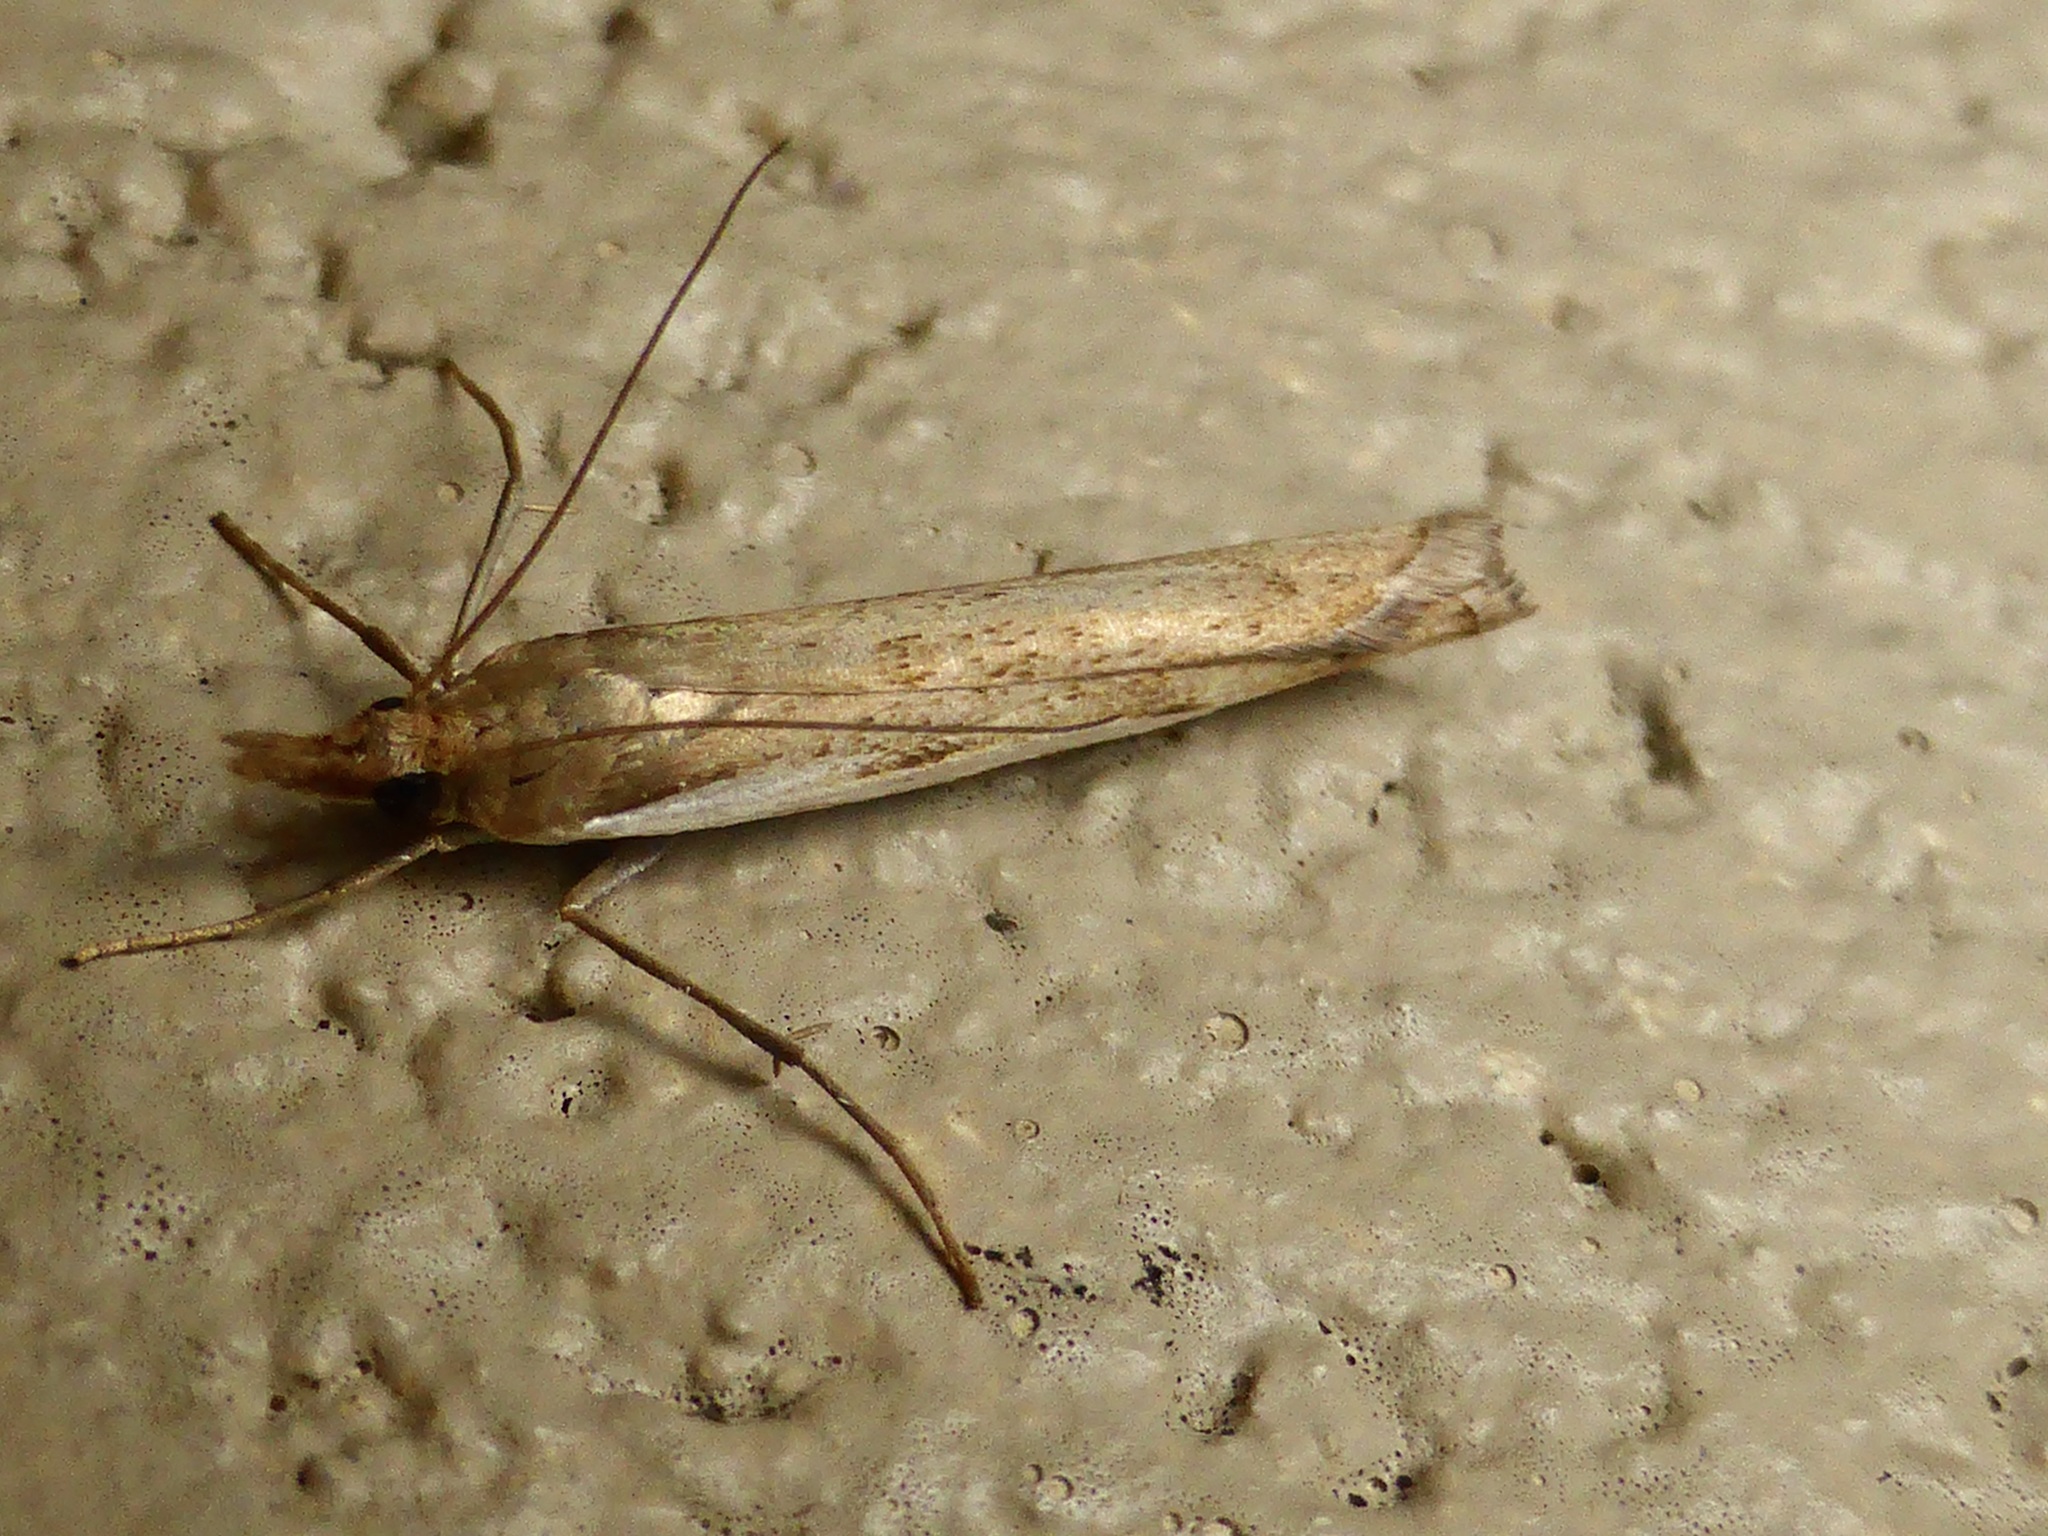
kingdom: Animalia
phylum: Arthropoda
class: Insecta
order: Lepidoptera
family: Crambidae
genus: Orocrambus
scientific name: Orocrambus flexuosellus
